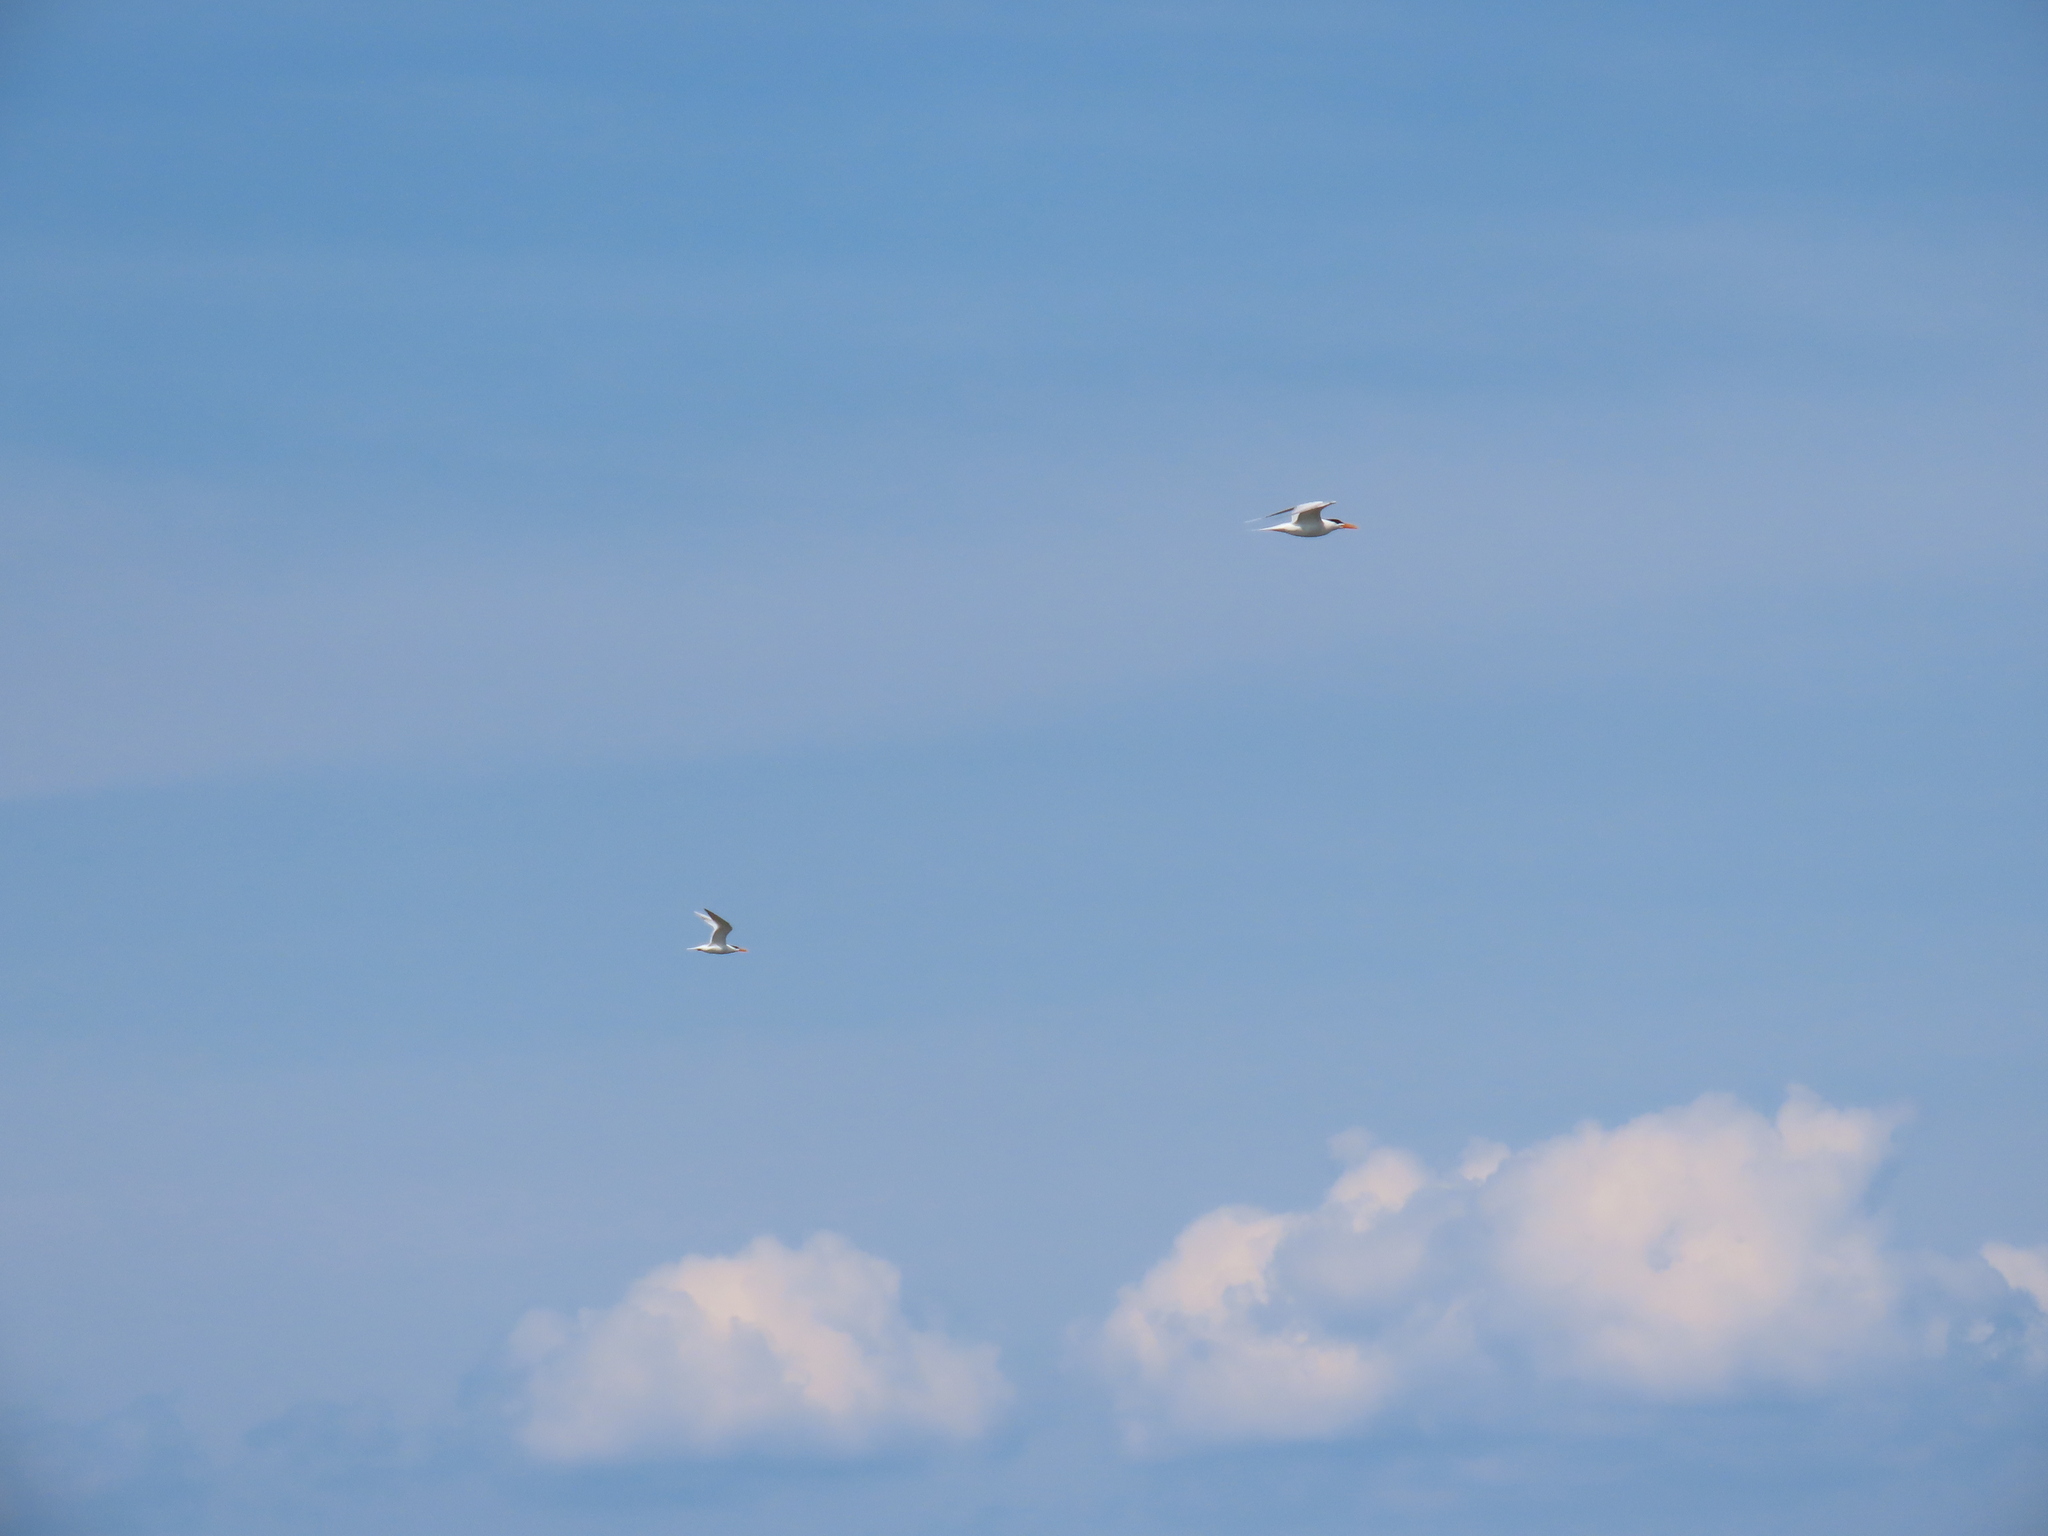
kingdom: Animalia
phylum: Chordata
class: Aves
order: Charadriiformes
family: Laridae
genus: Thalasseus
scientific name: Thalasseus maximus
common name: Royal tern
